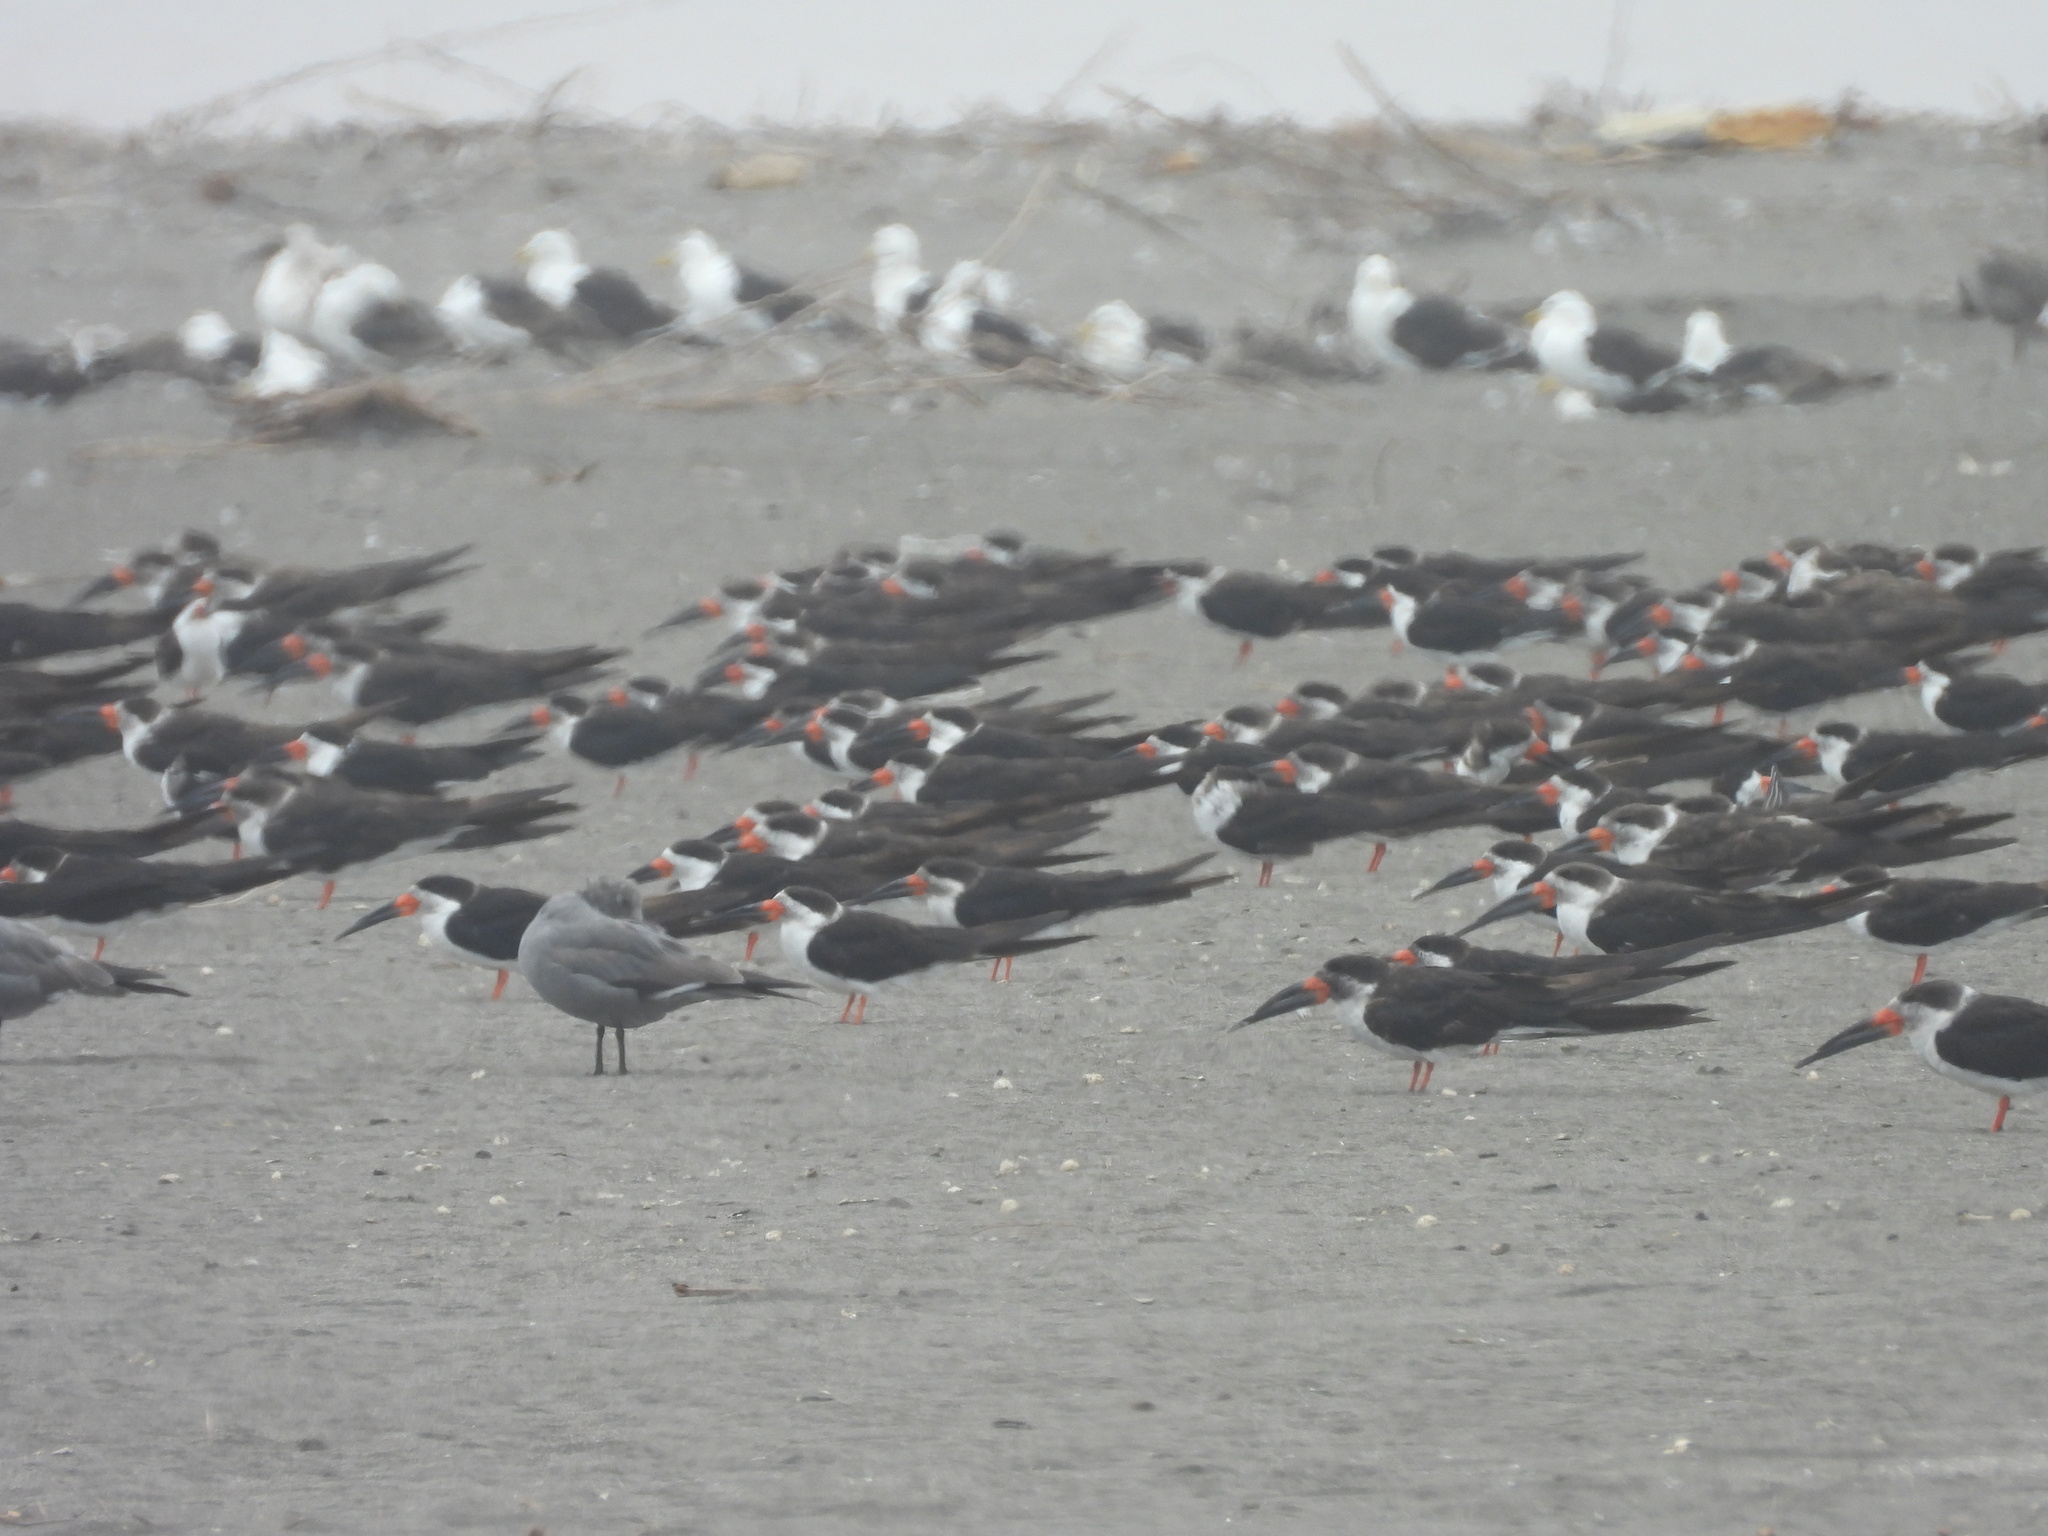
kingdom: Animalia
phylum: Chordata
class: Aves
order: Charadriiformes
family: Laridae
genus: Rynchops
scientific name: Rynchops niger
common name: Black skimmer
